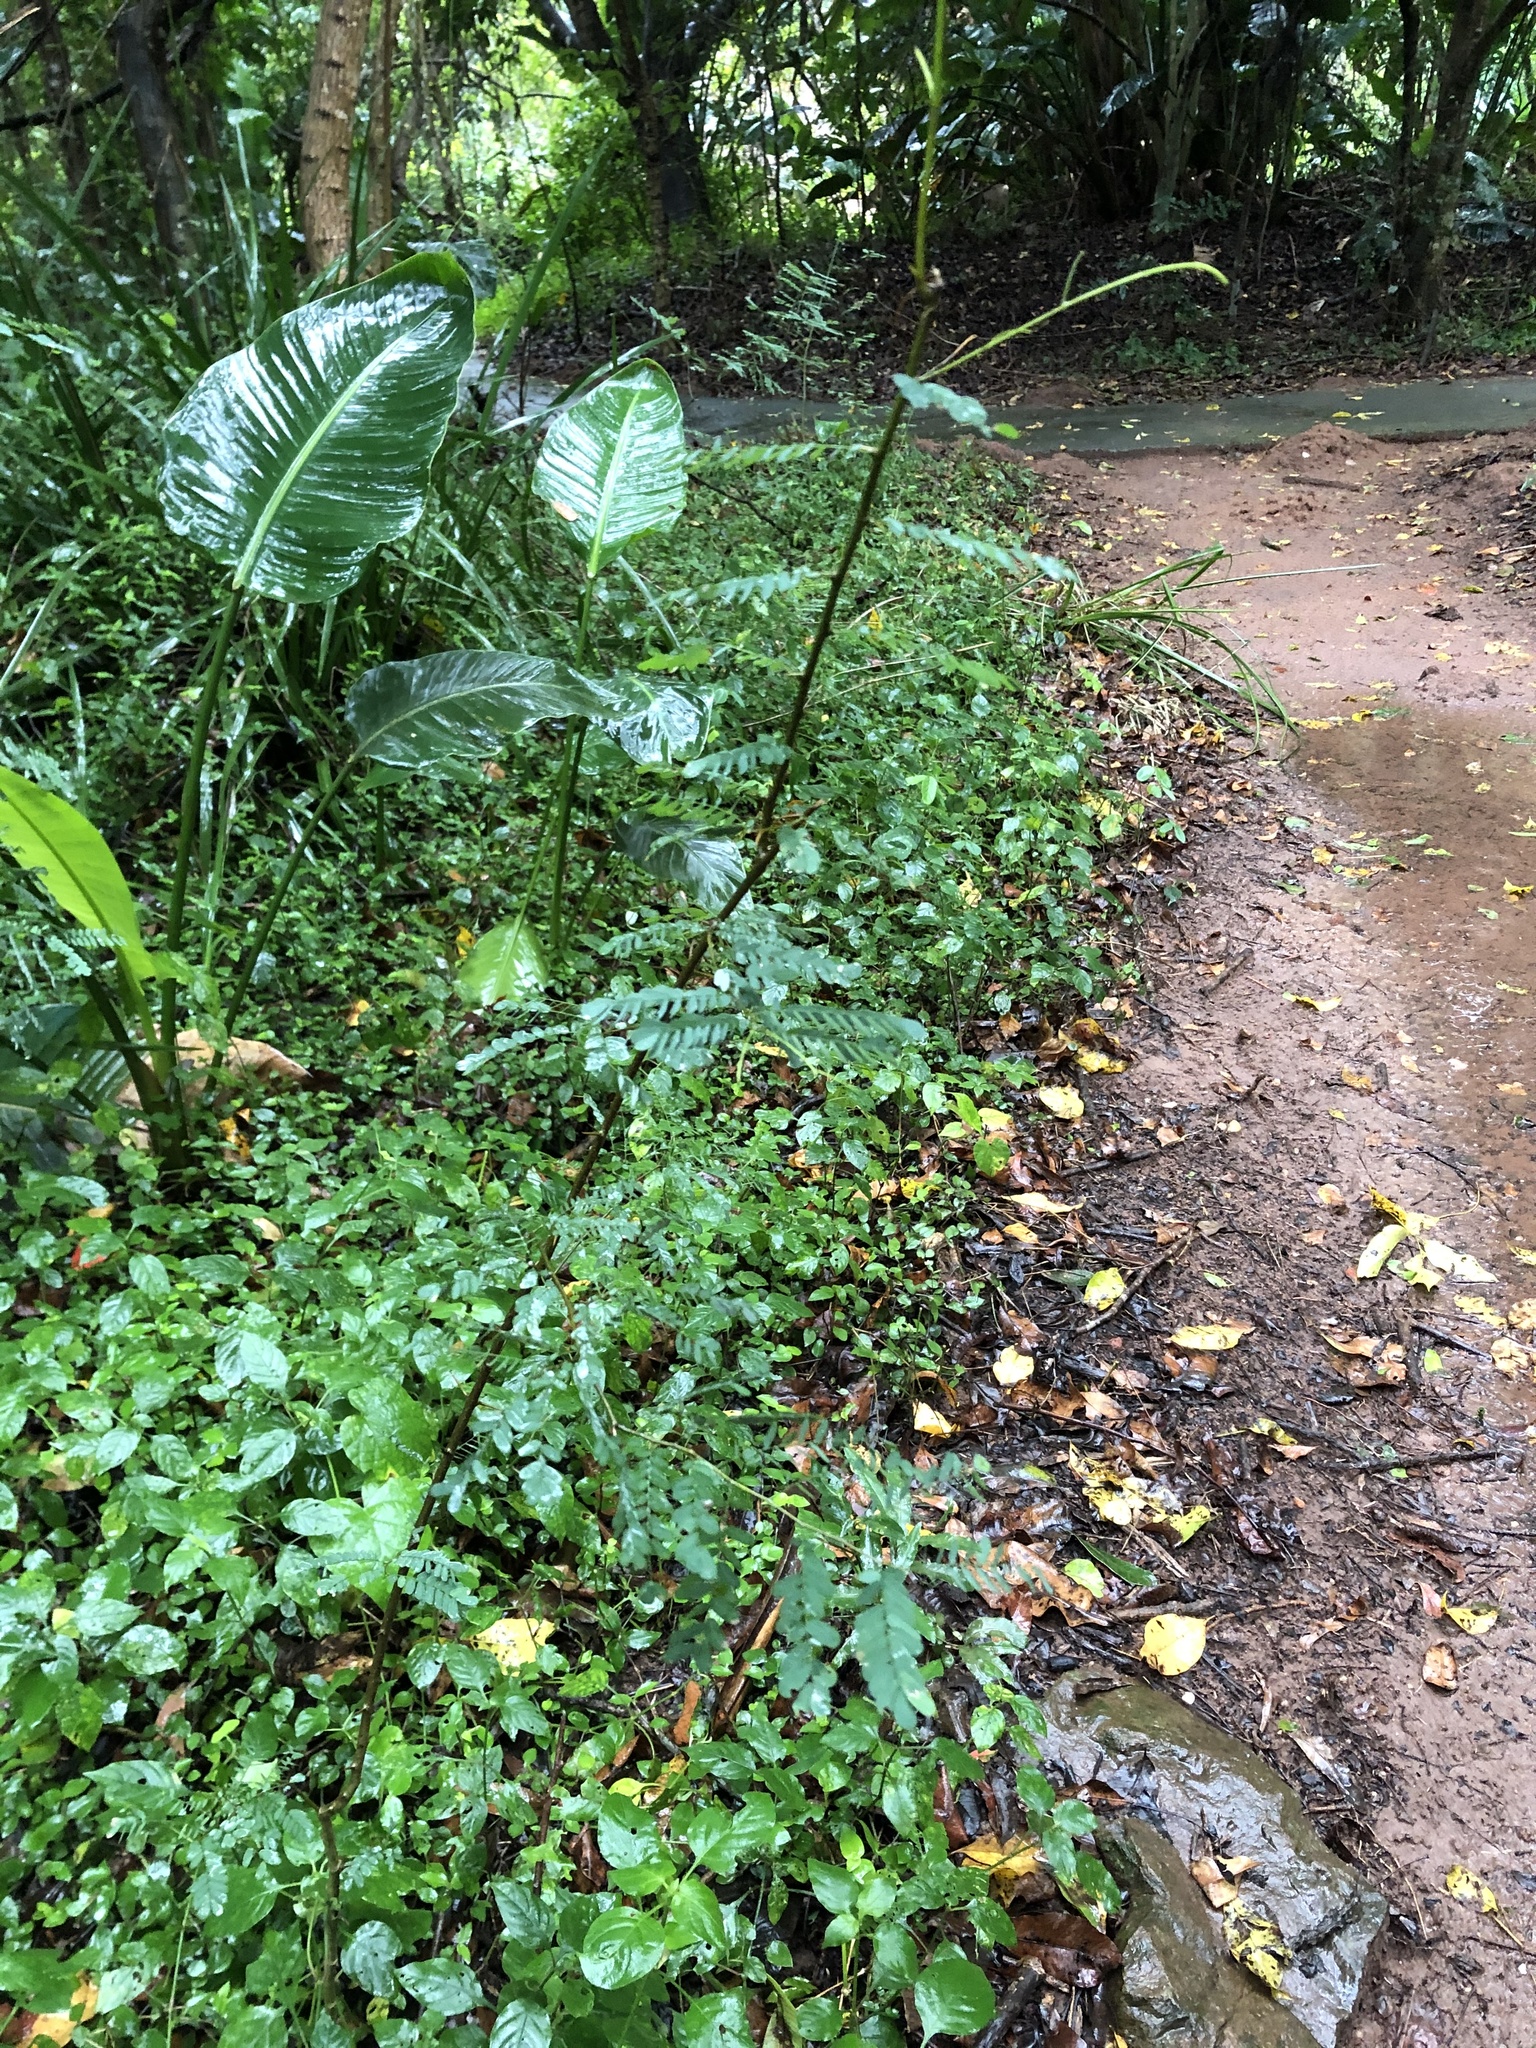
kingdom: Plantae
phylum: Tracheophyta
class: Magnoliopsida
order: Fabales
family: Fabaceae
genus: Dalbergia
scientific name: Dalbergia armata
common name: Hluhluwe climber
